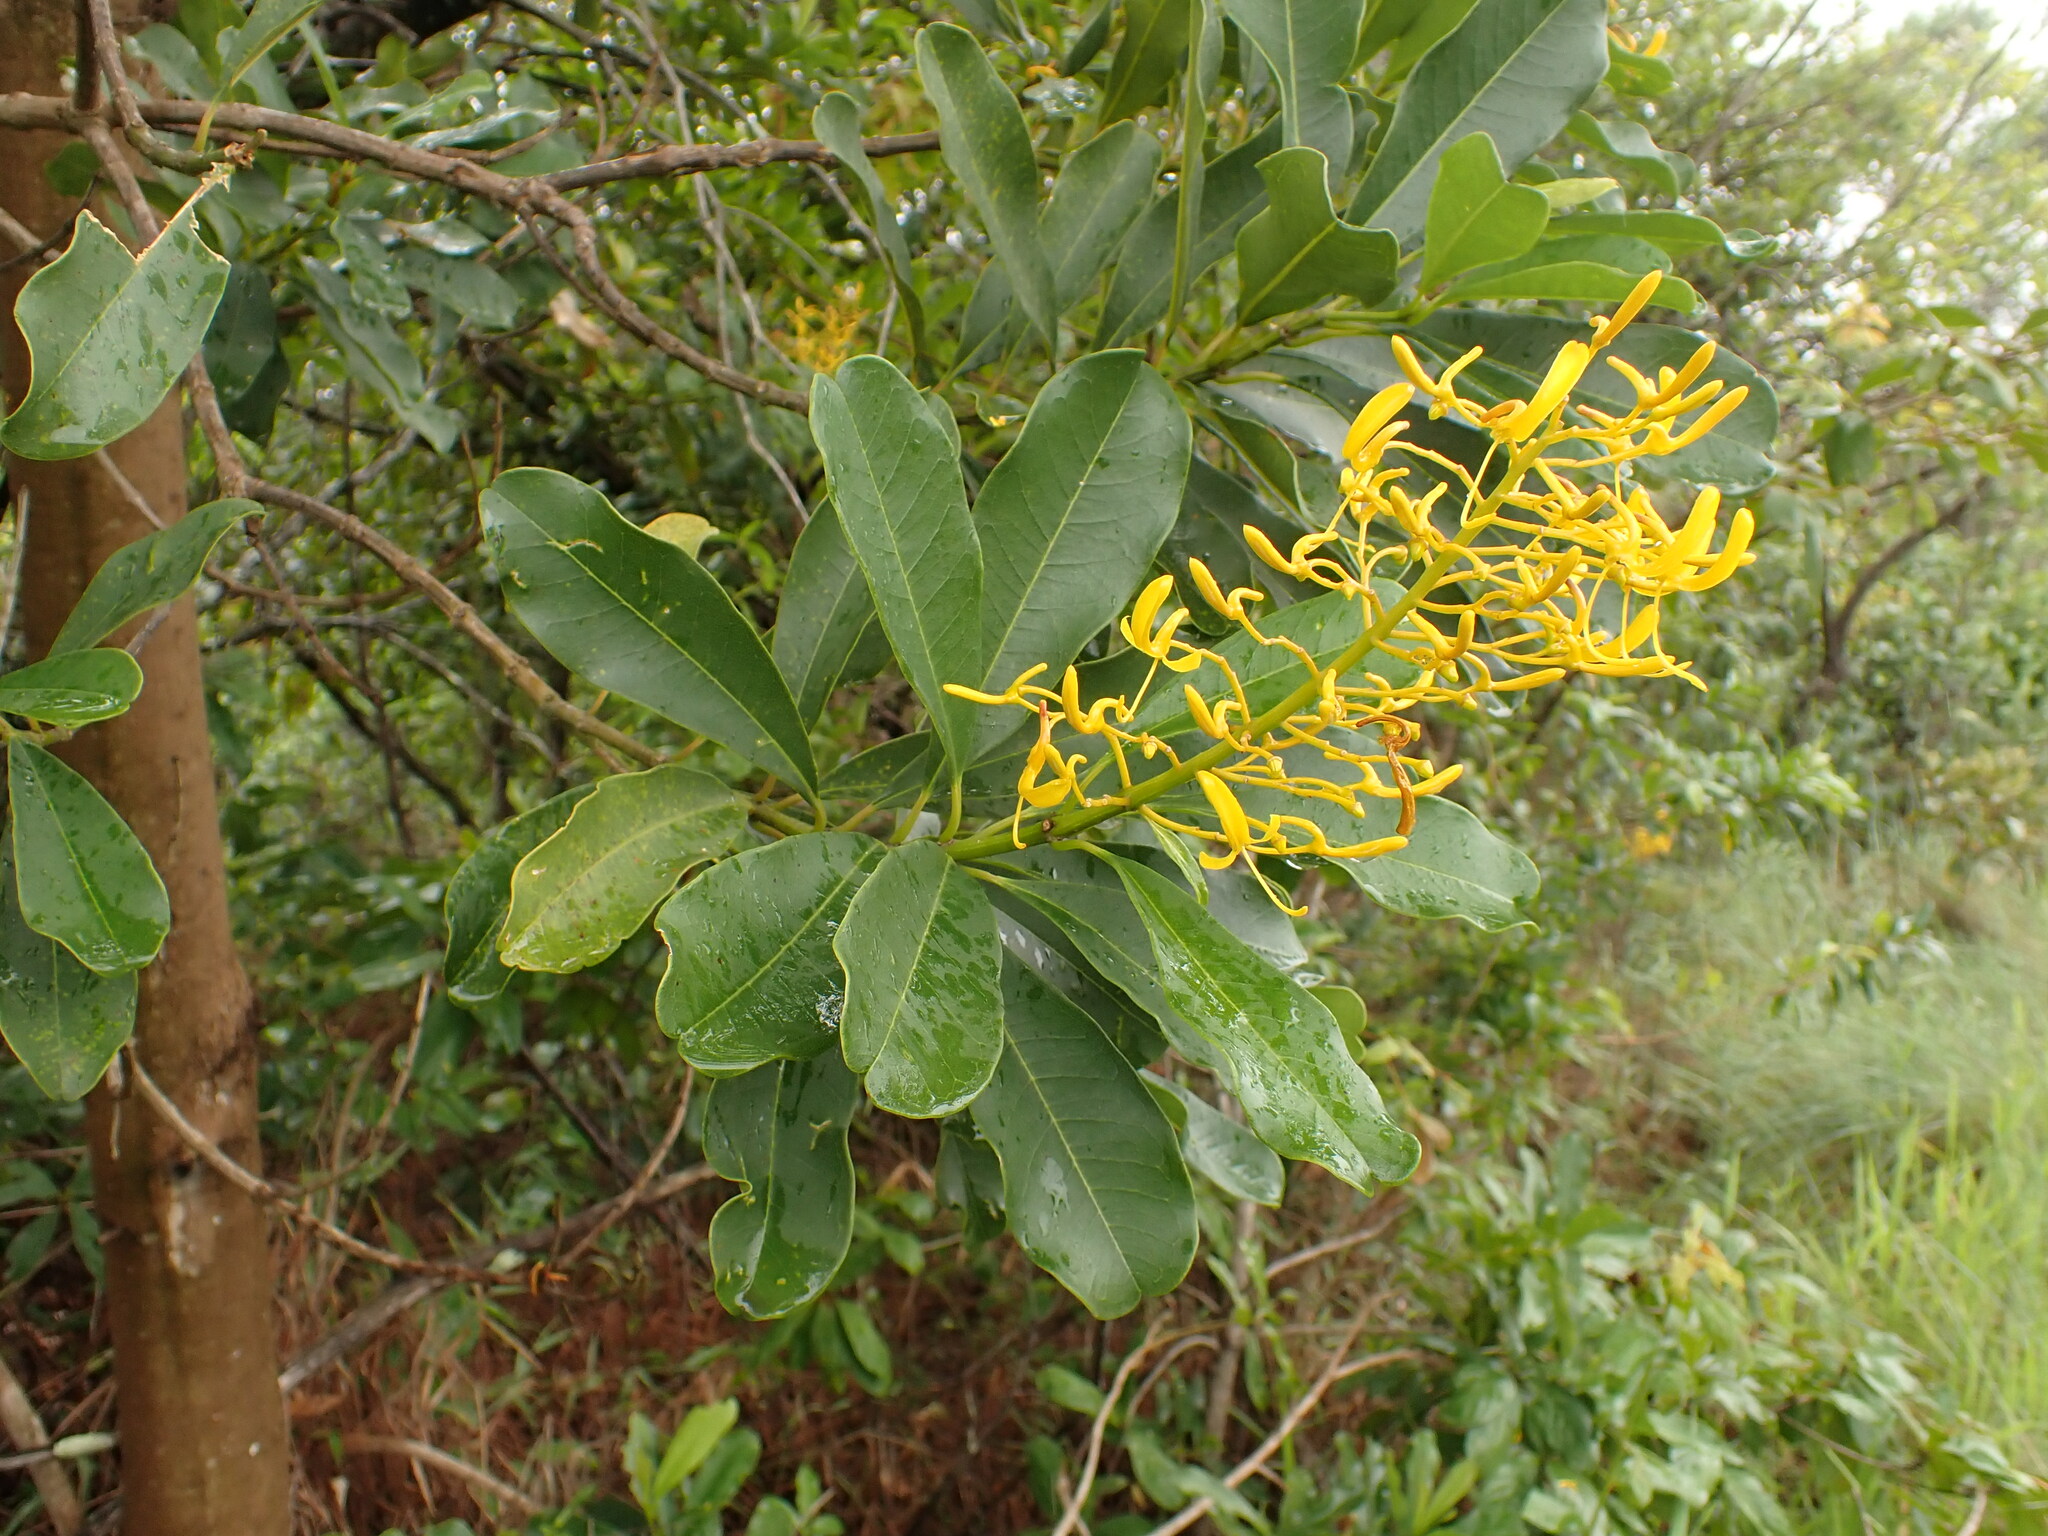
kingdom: Plantae
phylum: Tracheophyta
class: Magnoliopsida
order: Myrtales
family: Vochysiaceae
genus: Vochysia
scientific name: Vochysia tucanorum
